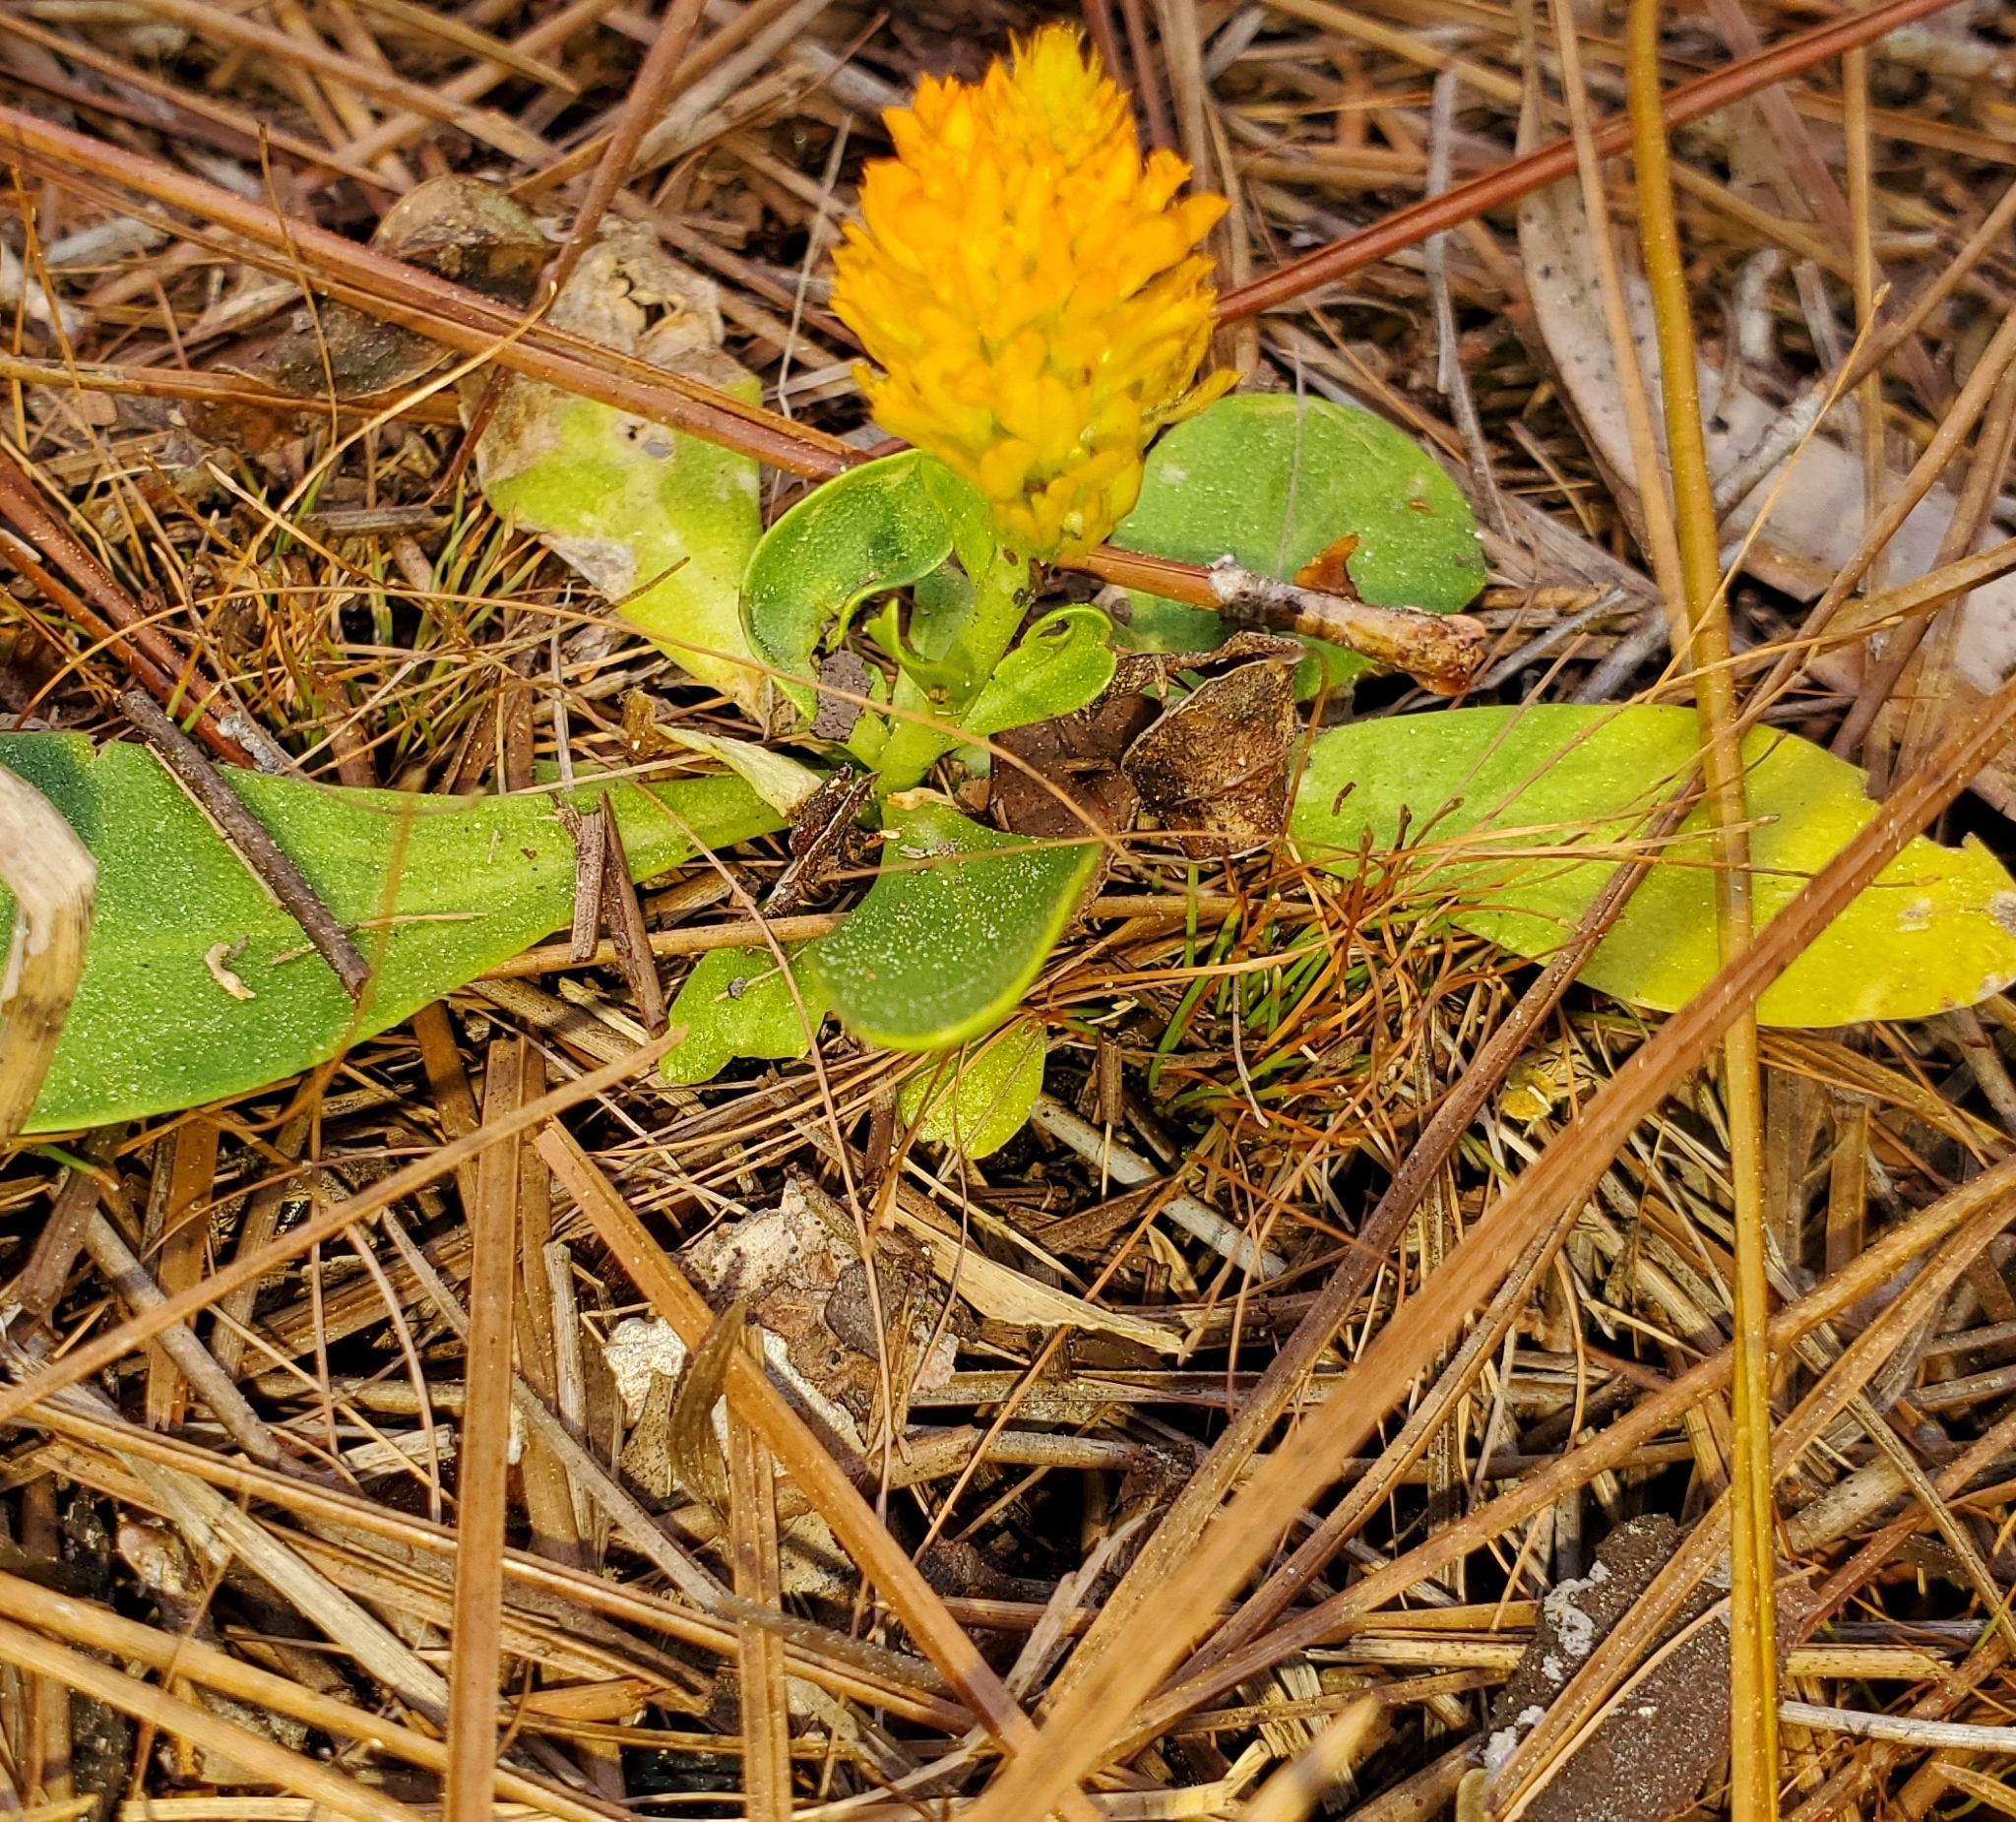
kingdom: Plantae
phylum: Tracheophyta
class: Magnoliopsida
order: Fabales
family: Polygalaceae
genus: Polygala
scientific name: Polygala lutea
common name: Orange milkwort
